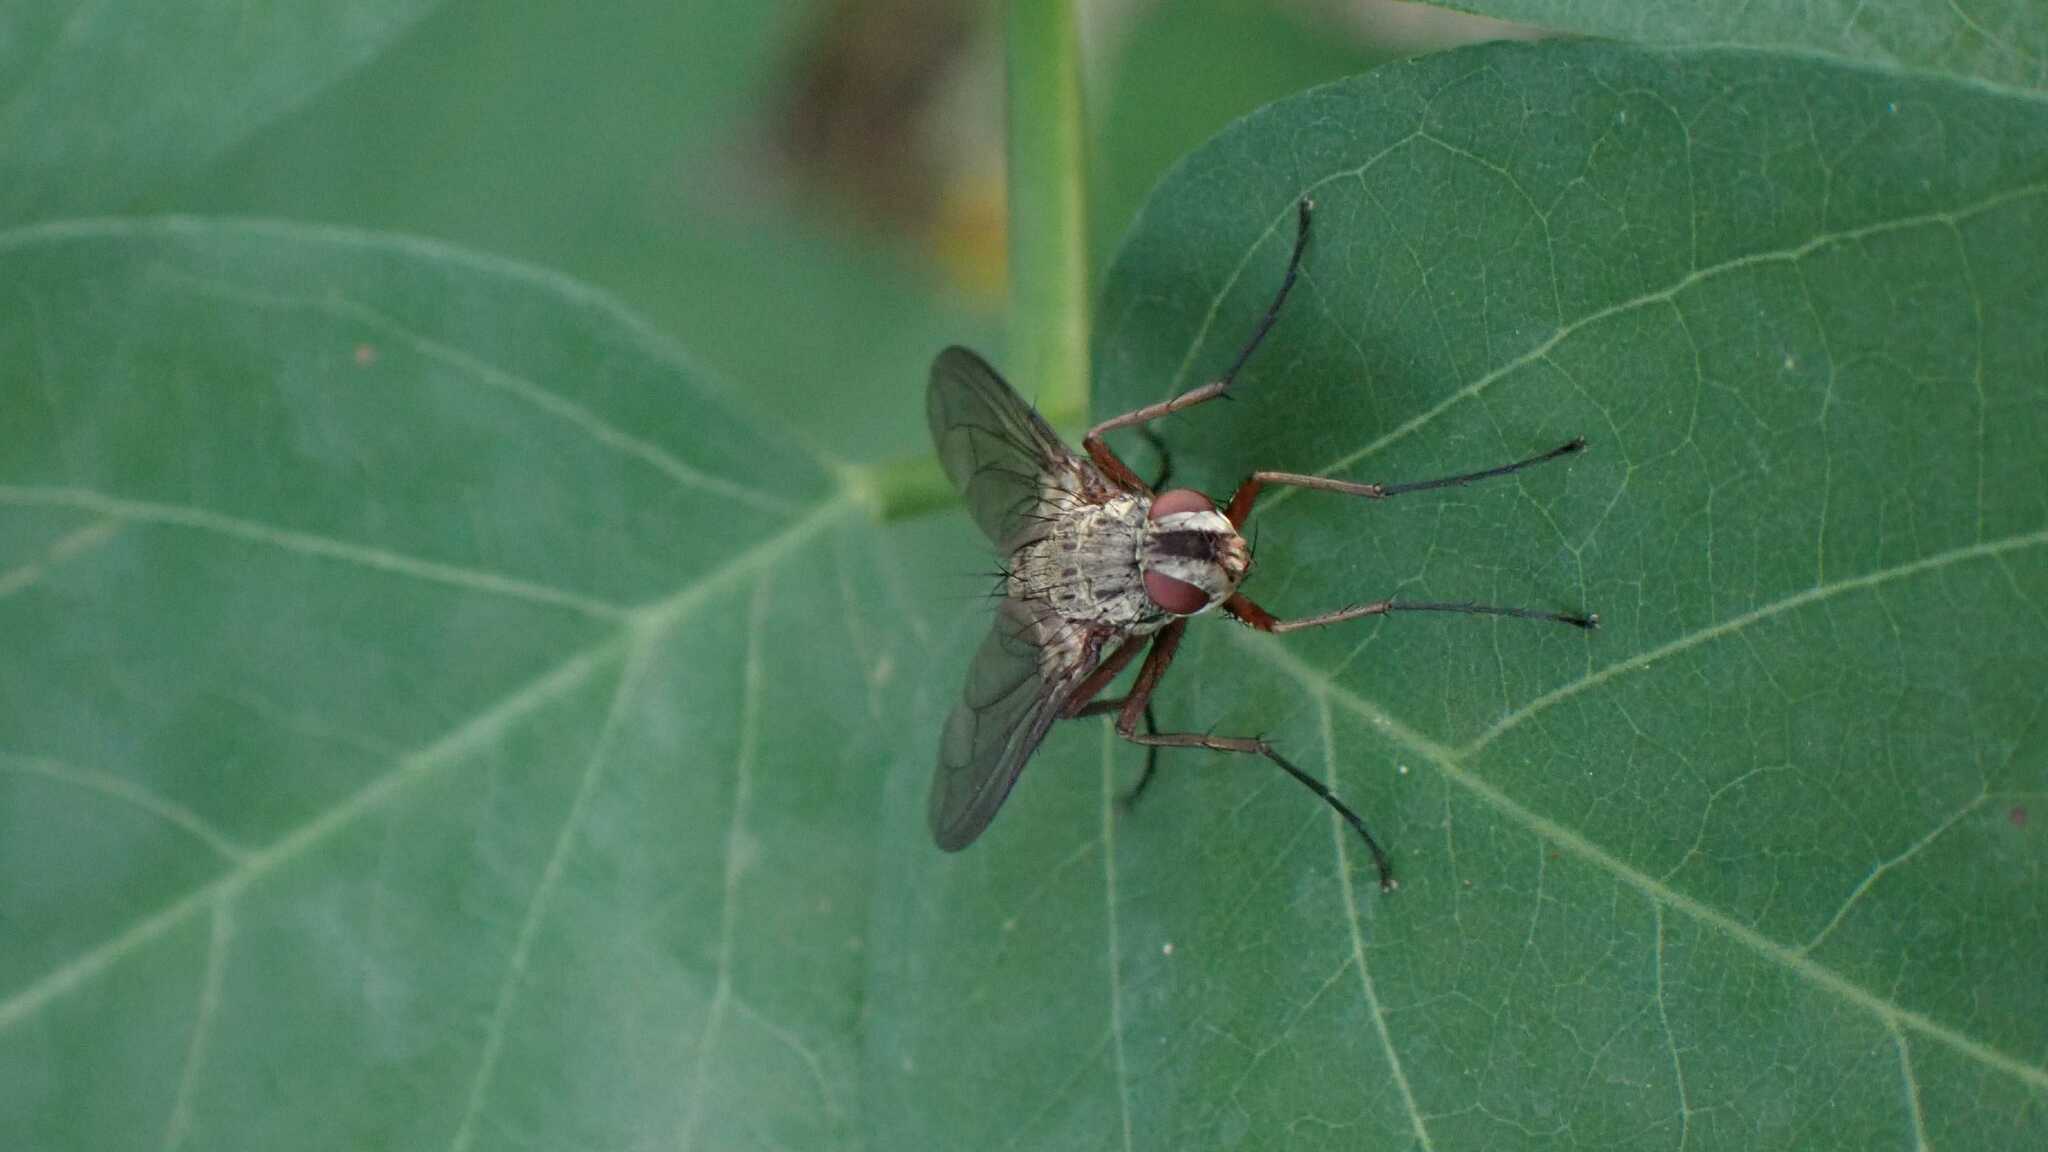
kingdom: Animalia
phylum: Arthropoda
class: Insecta
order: Diptera
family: Tachinidae
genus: Dexia
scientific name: Dexia rustica
